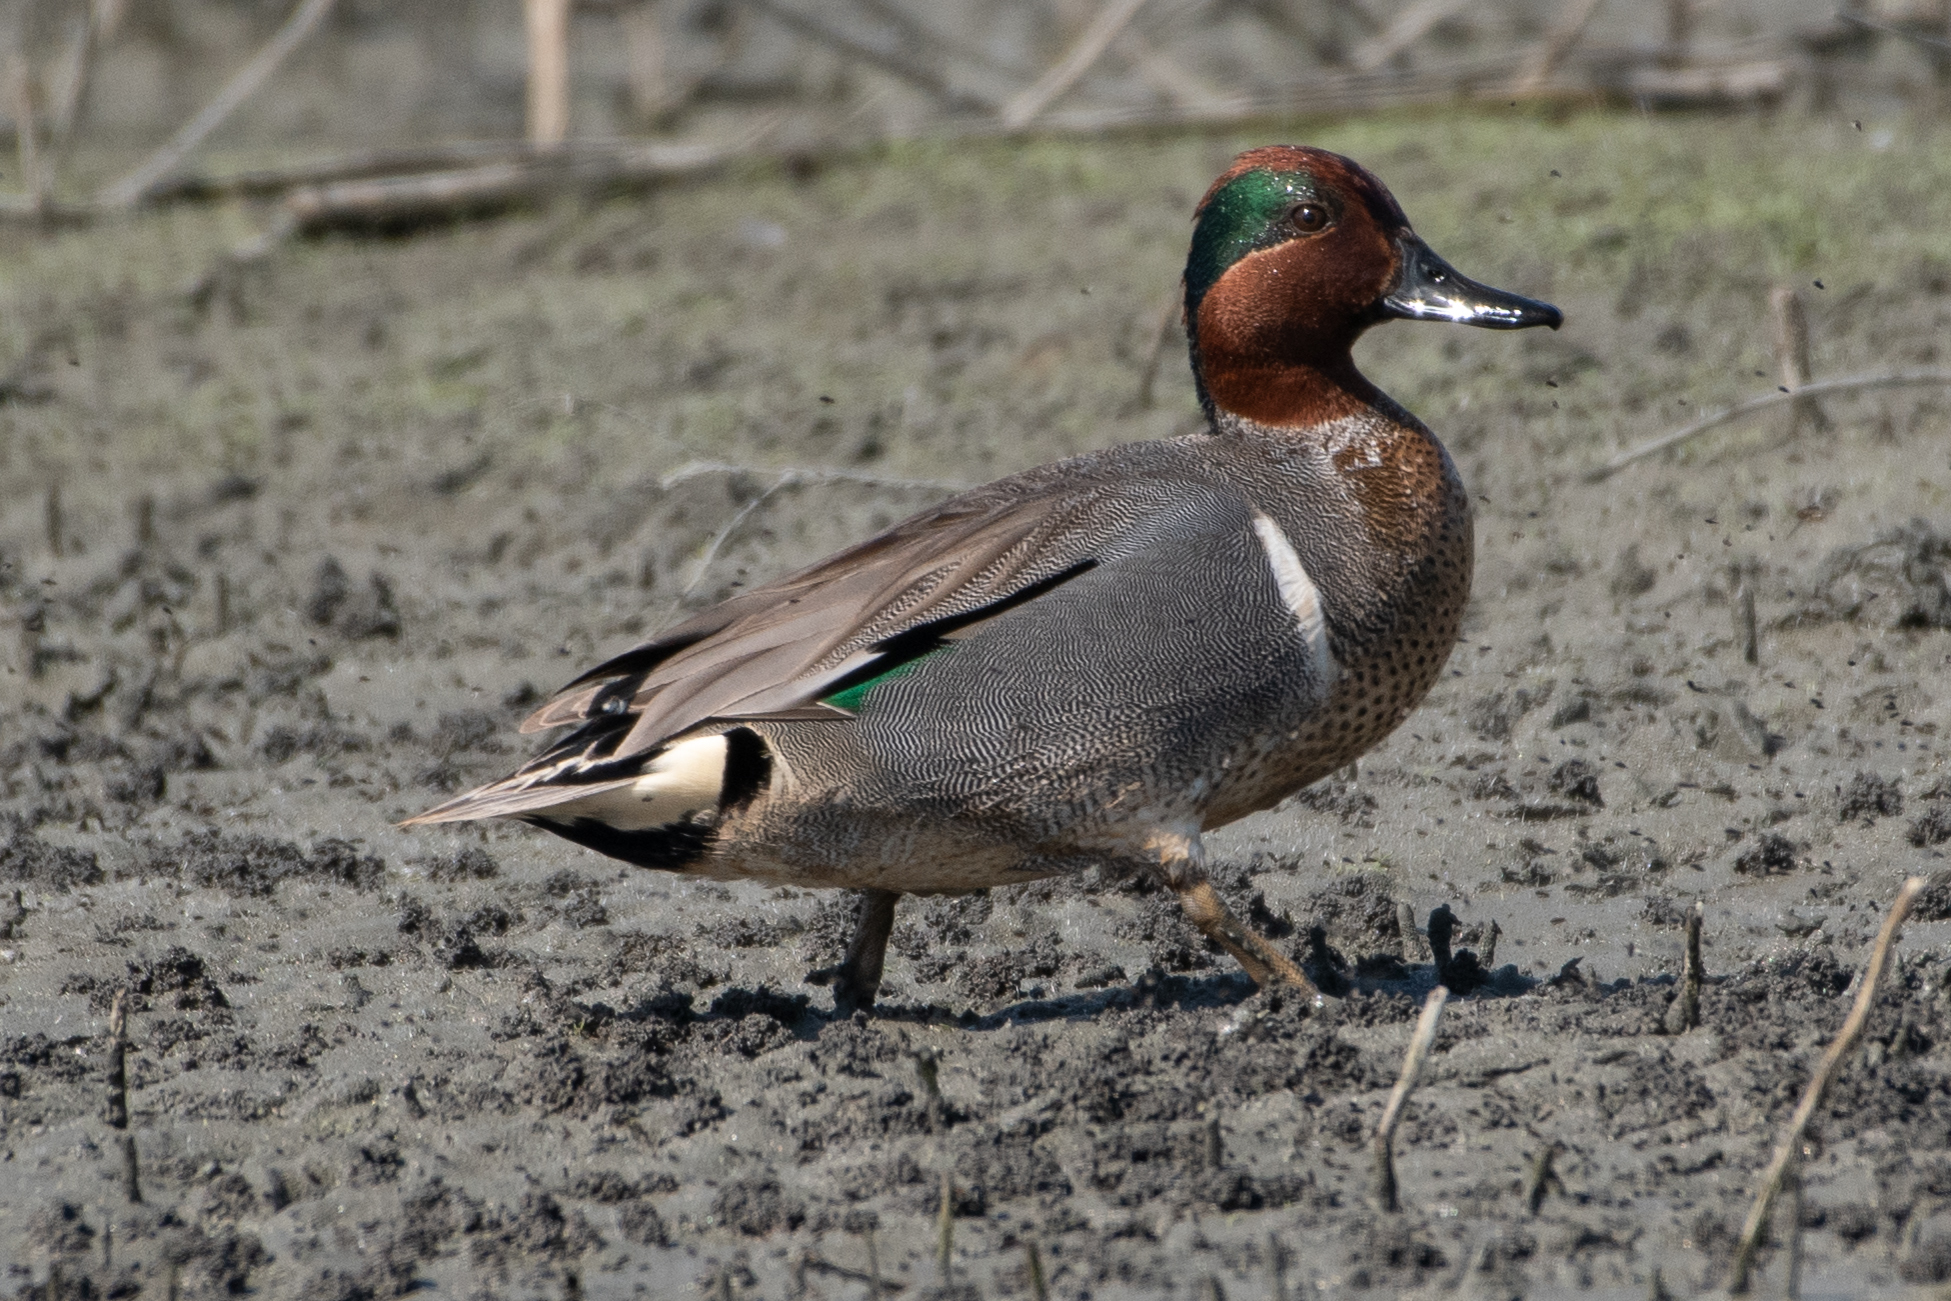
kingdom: Animalia
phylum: Chordata
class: Aves
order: Anseriformes
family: Anatidae
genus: Anas
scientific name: Anas crecca
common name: Eurasian teal
